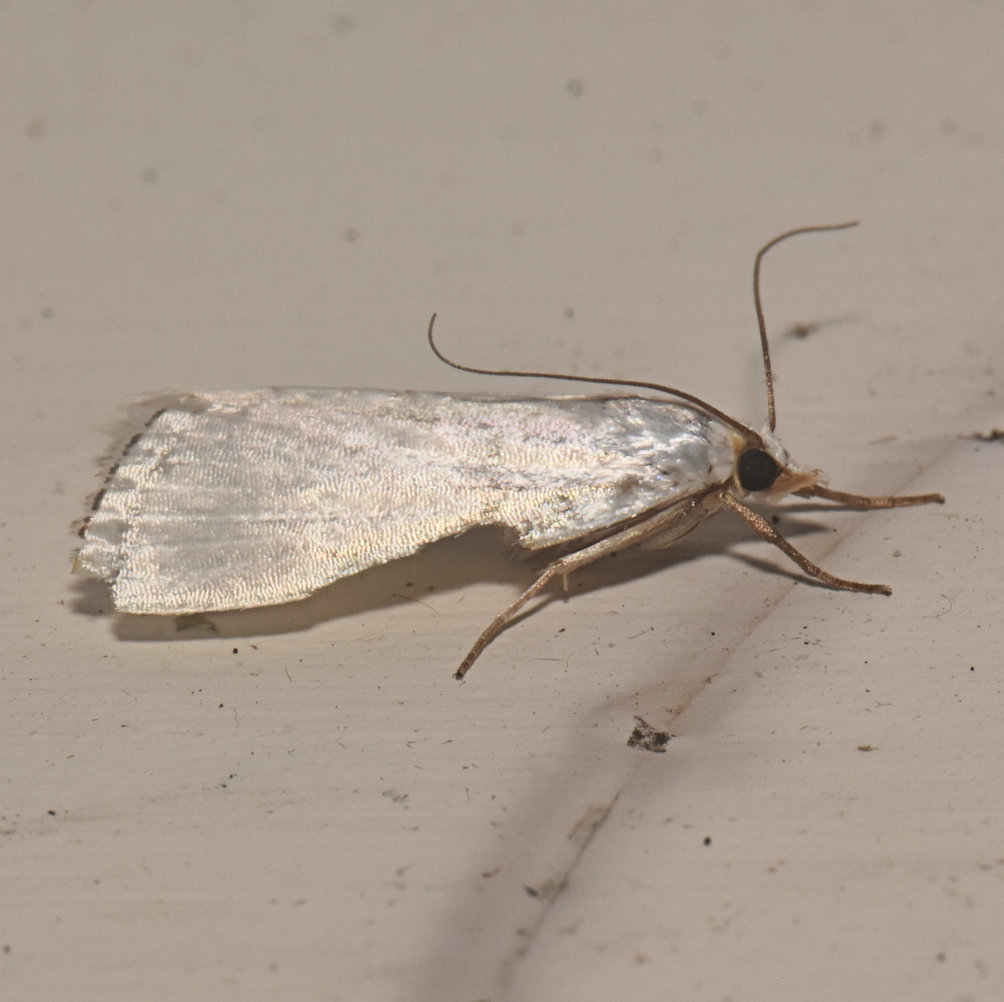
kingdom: Animalia
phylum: Arthropoda
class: Insecta
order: Lepidoptera
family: Crambidae
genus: Argyria
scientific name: Argyria nivalis
